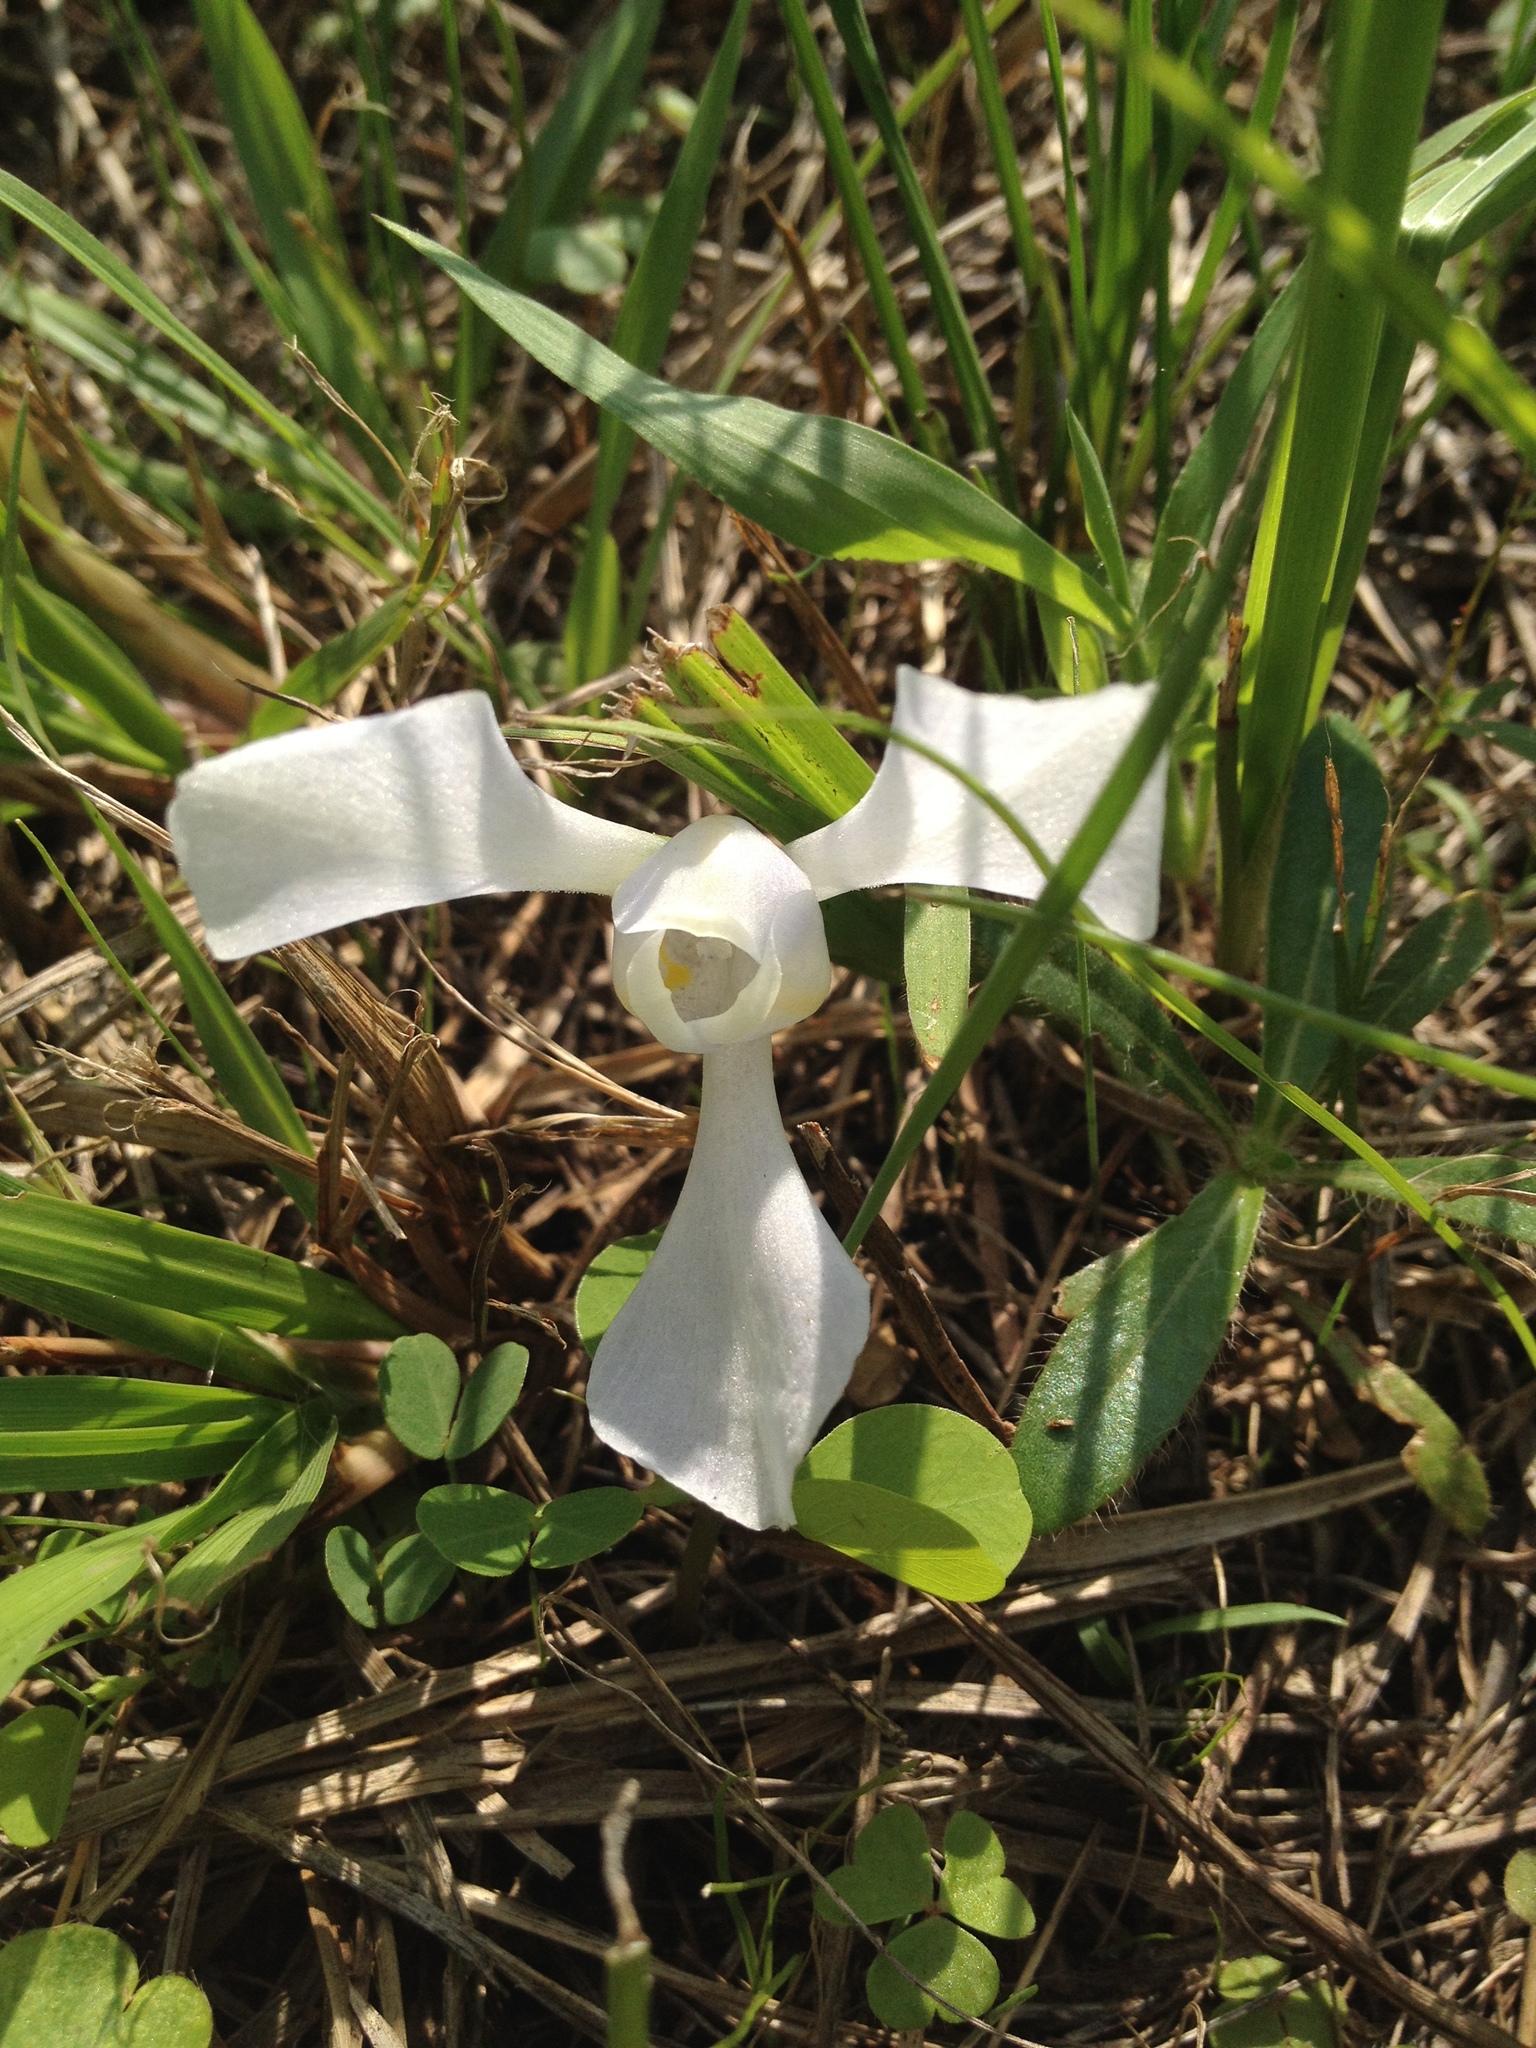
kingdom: Plantae
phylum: Tracheophyta
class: Liliopsida
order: Asparagales
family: Iridaceae
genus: Cipura
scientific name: Cipura paludosa
